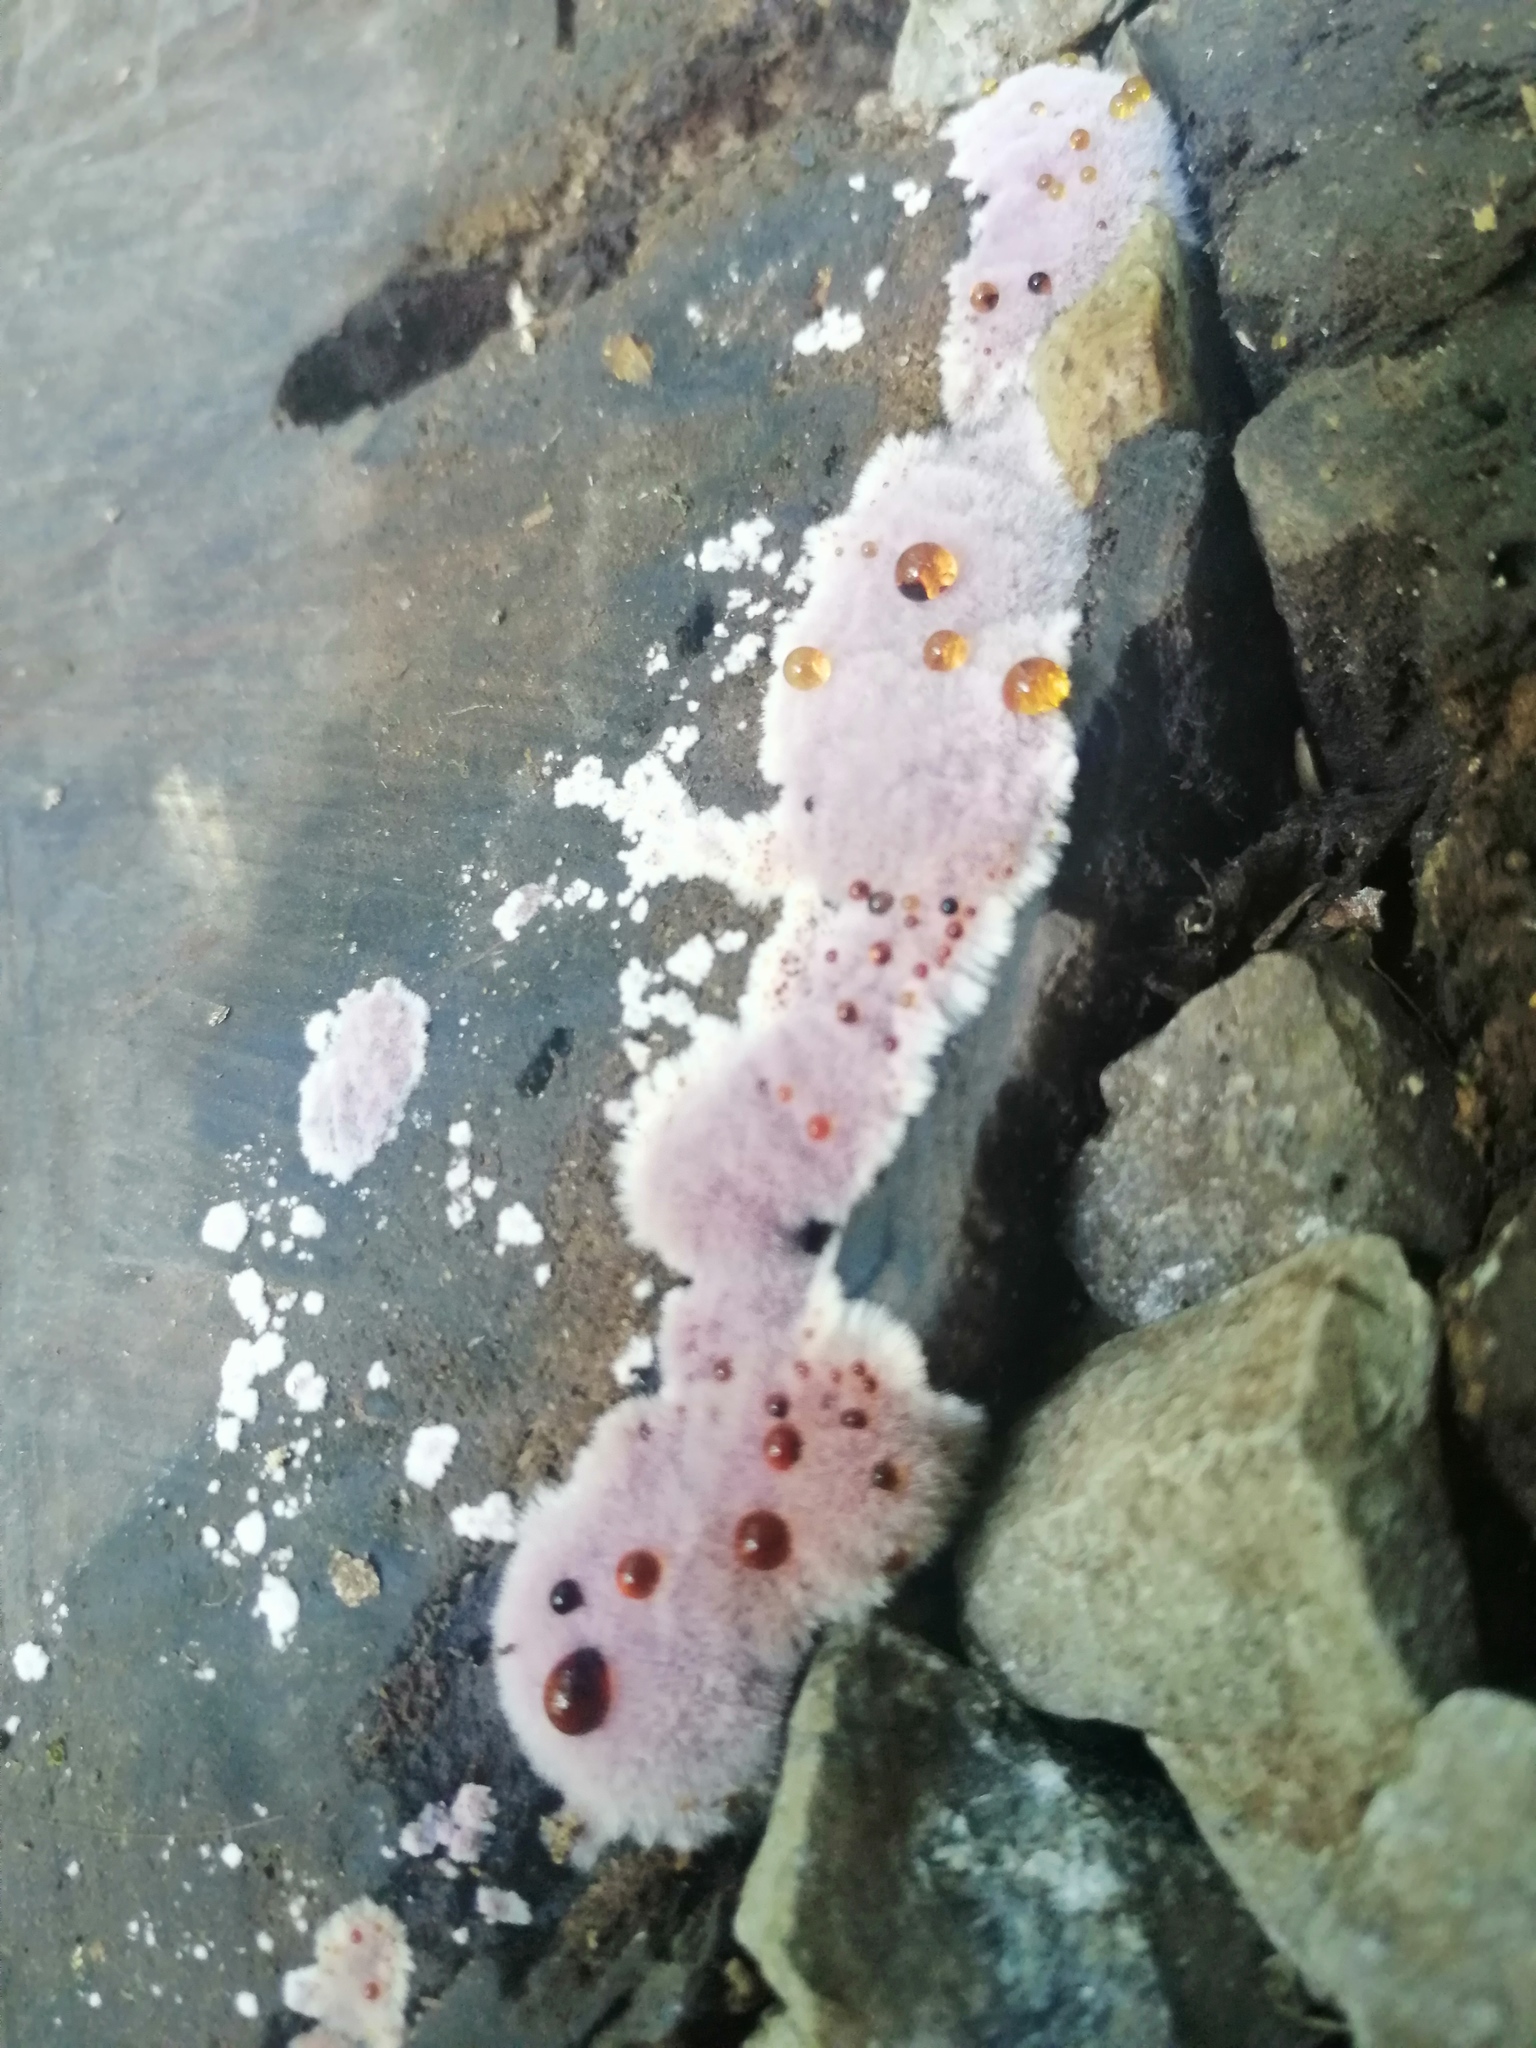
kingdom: Fungi
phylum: Basidiomycota
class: Agaricomycetes
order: Corticiales
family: Punctulariaceae
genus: Punctularia
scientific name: Punctularia atropurpurascens
